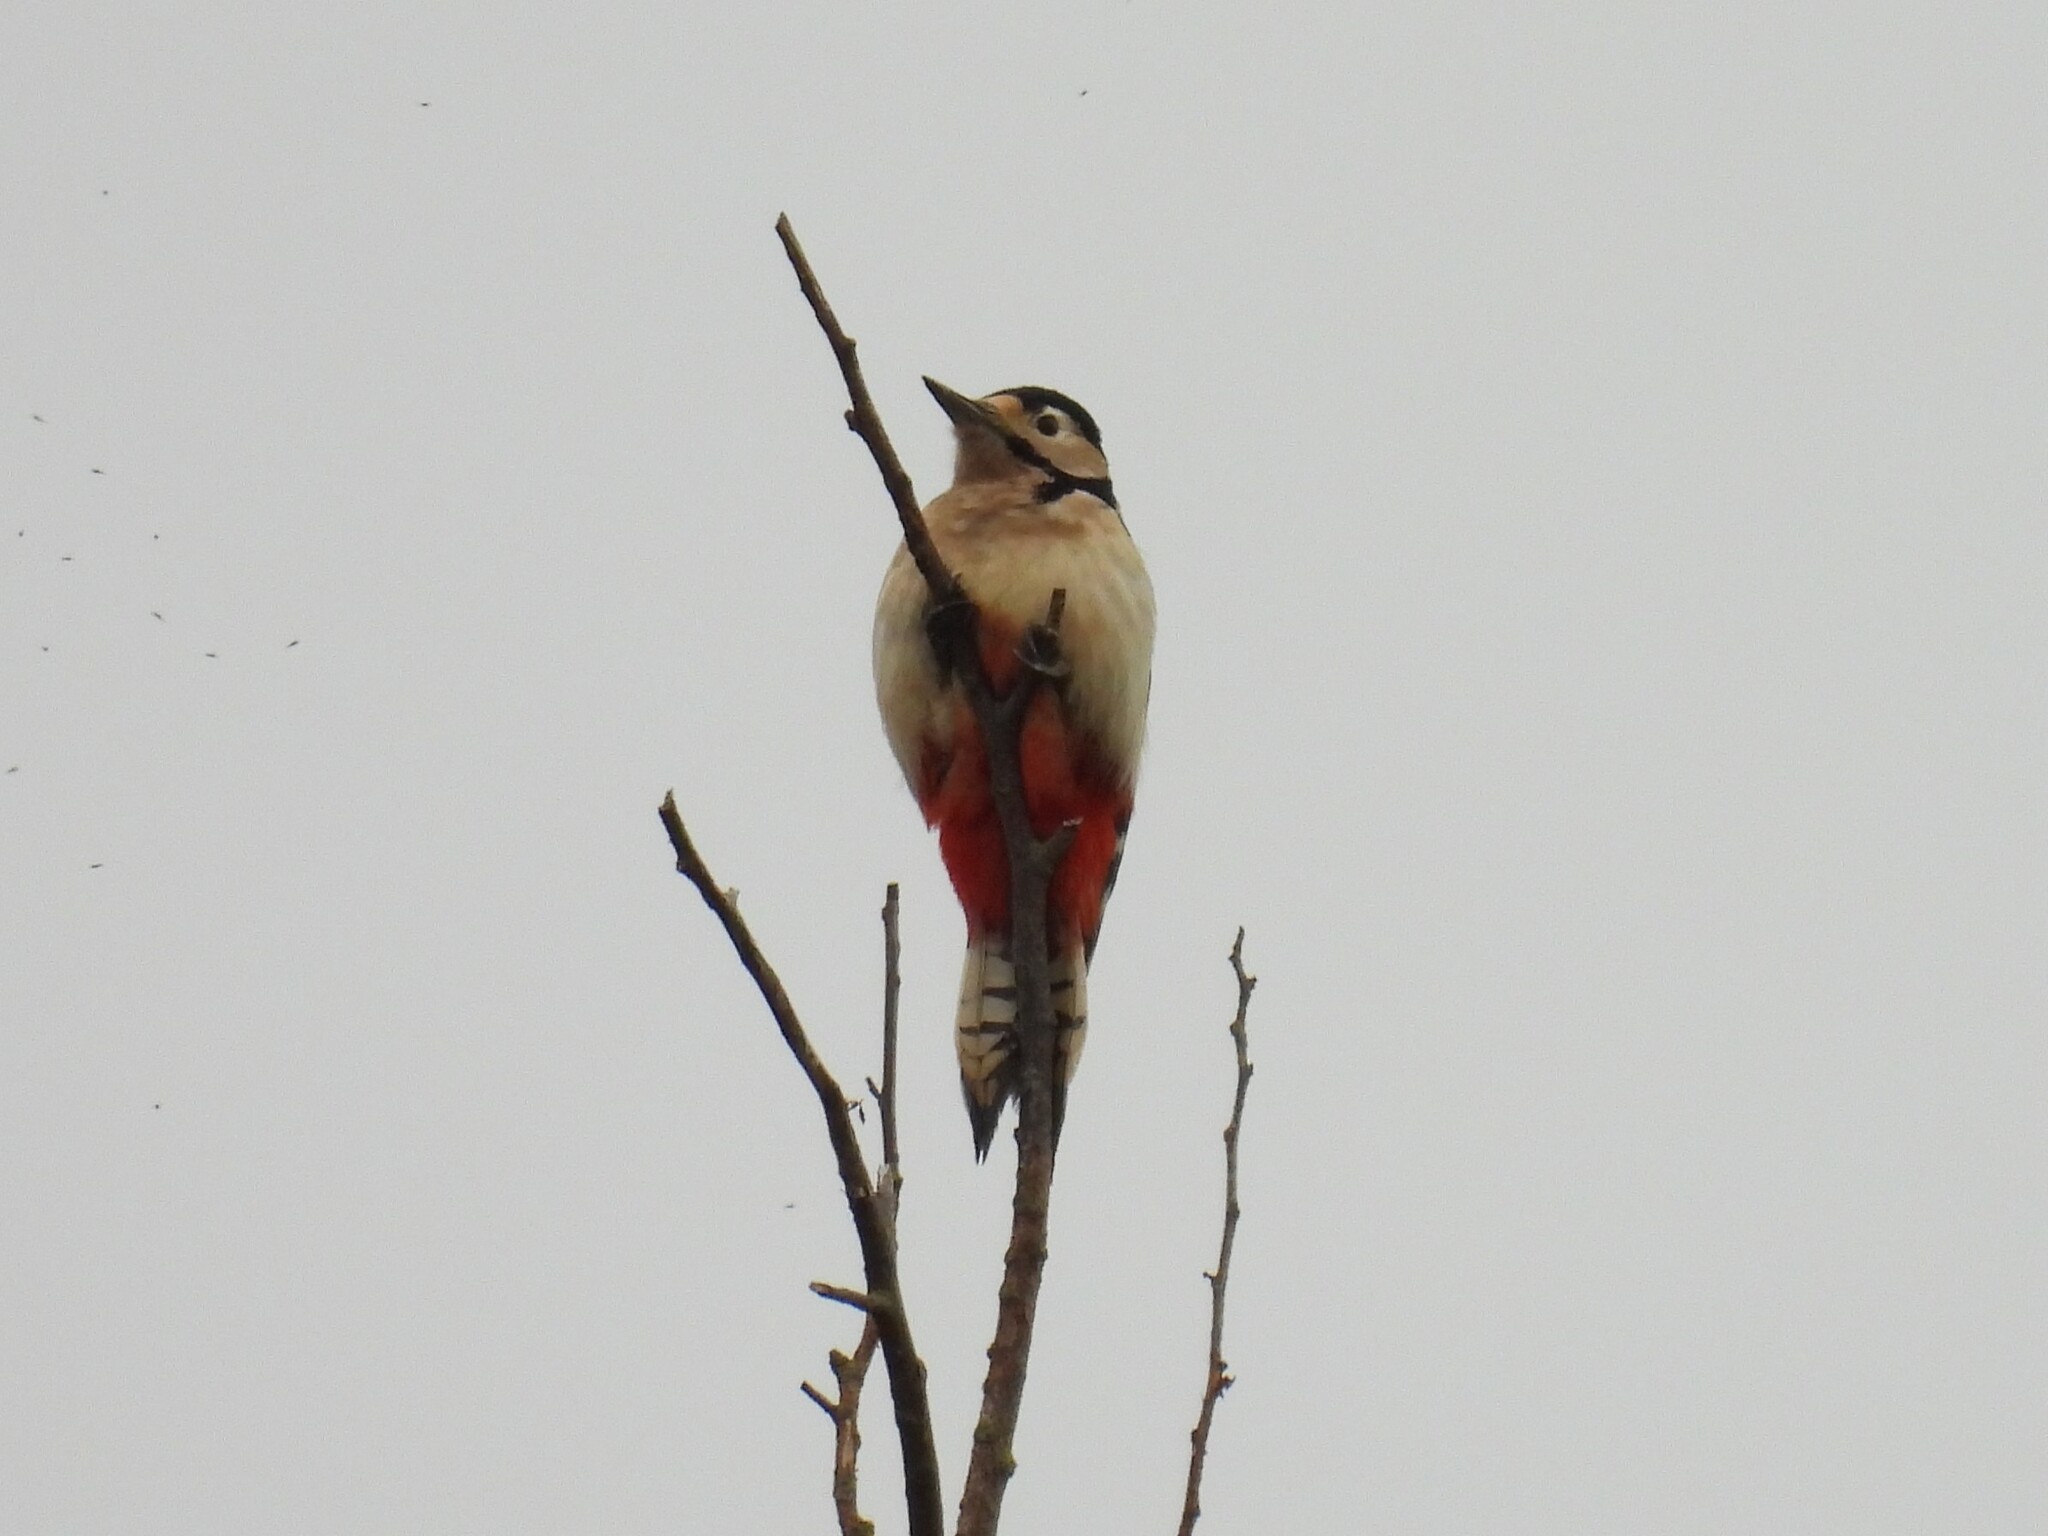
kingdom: Animalia
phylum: Chordata
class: Aves
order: Piciformes
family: Picidae
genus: Dendrocopos
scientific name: Dendrocopos major
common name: Great spotted woodpecker
